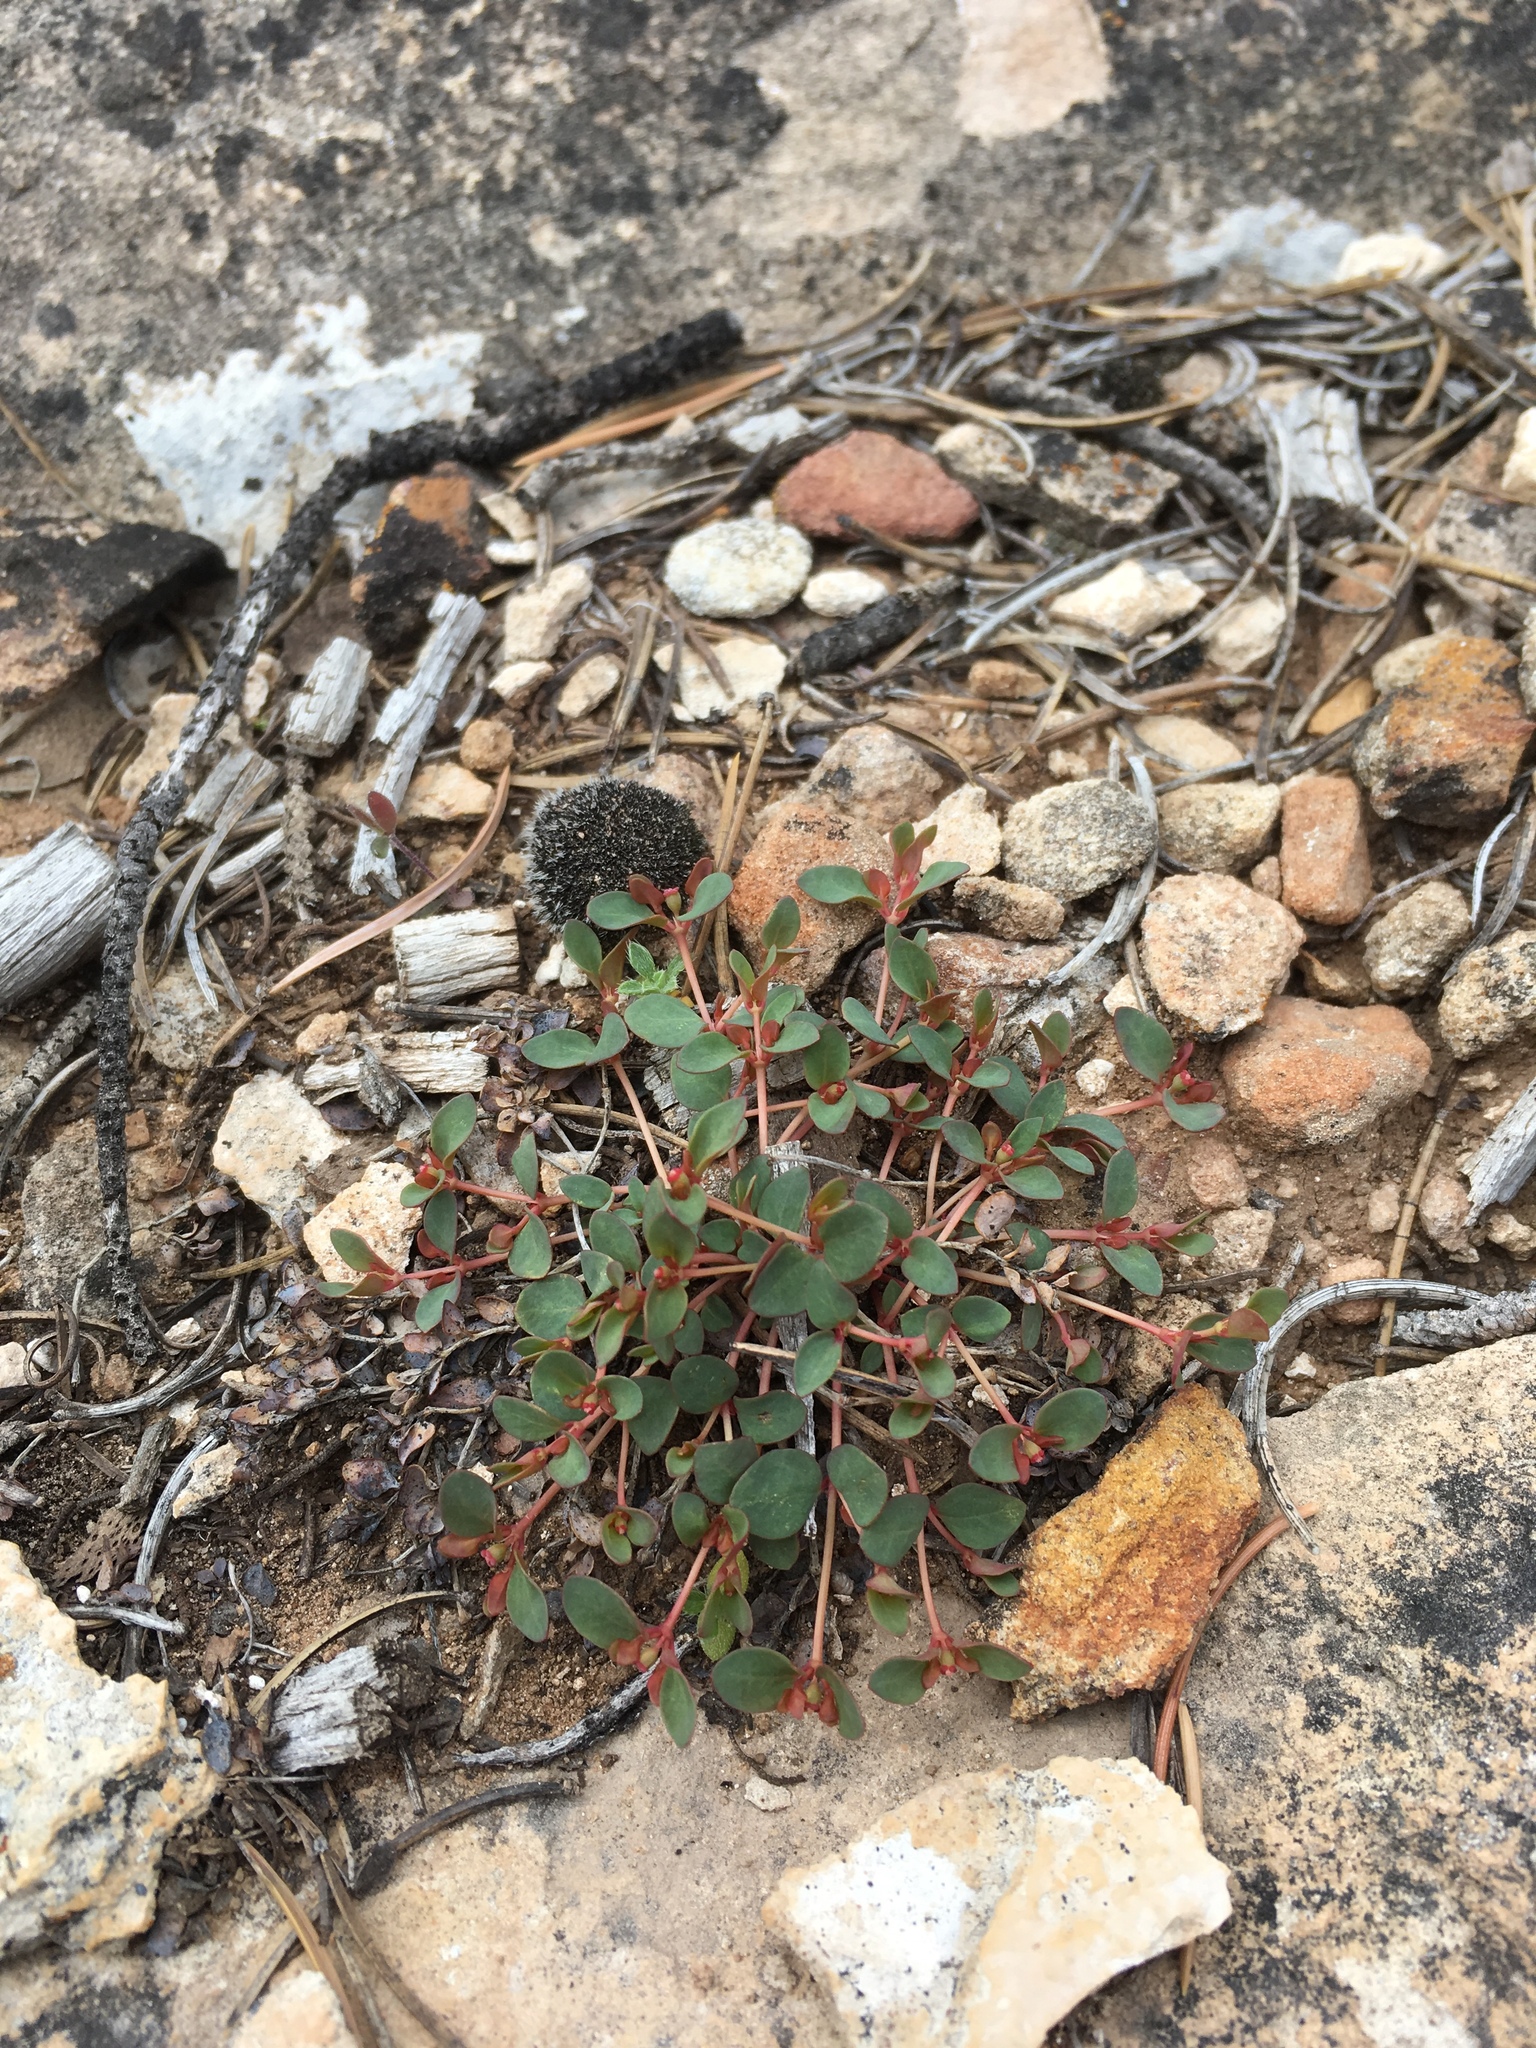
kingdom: Plantae
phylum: Tracheophyta
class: Magnoliopsida
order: Malpighiales
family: Euphorbiaceae
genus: Euphorbia
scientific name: Euphorbia fendleri
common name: Fendler's euphorbia
